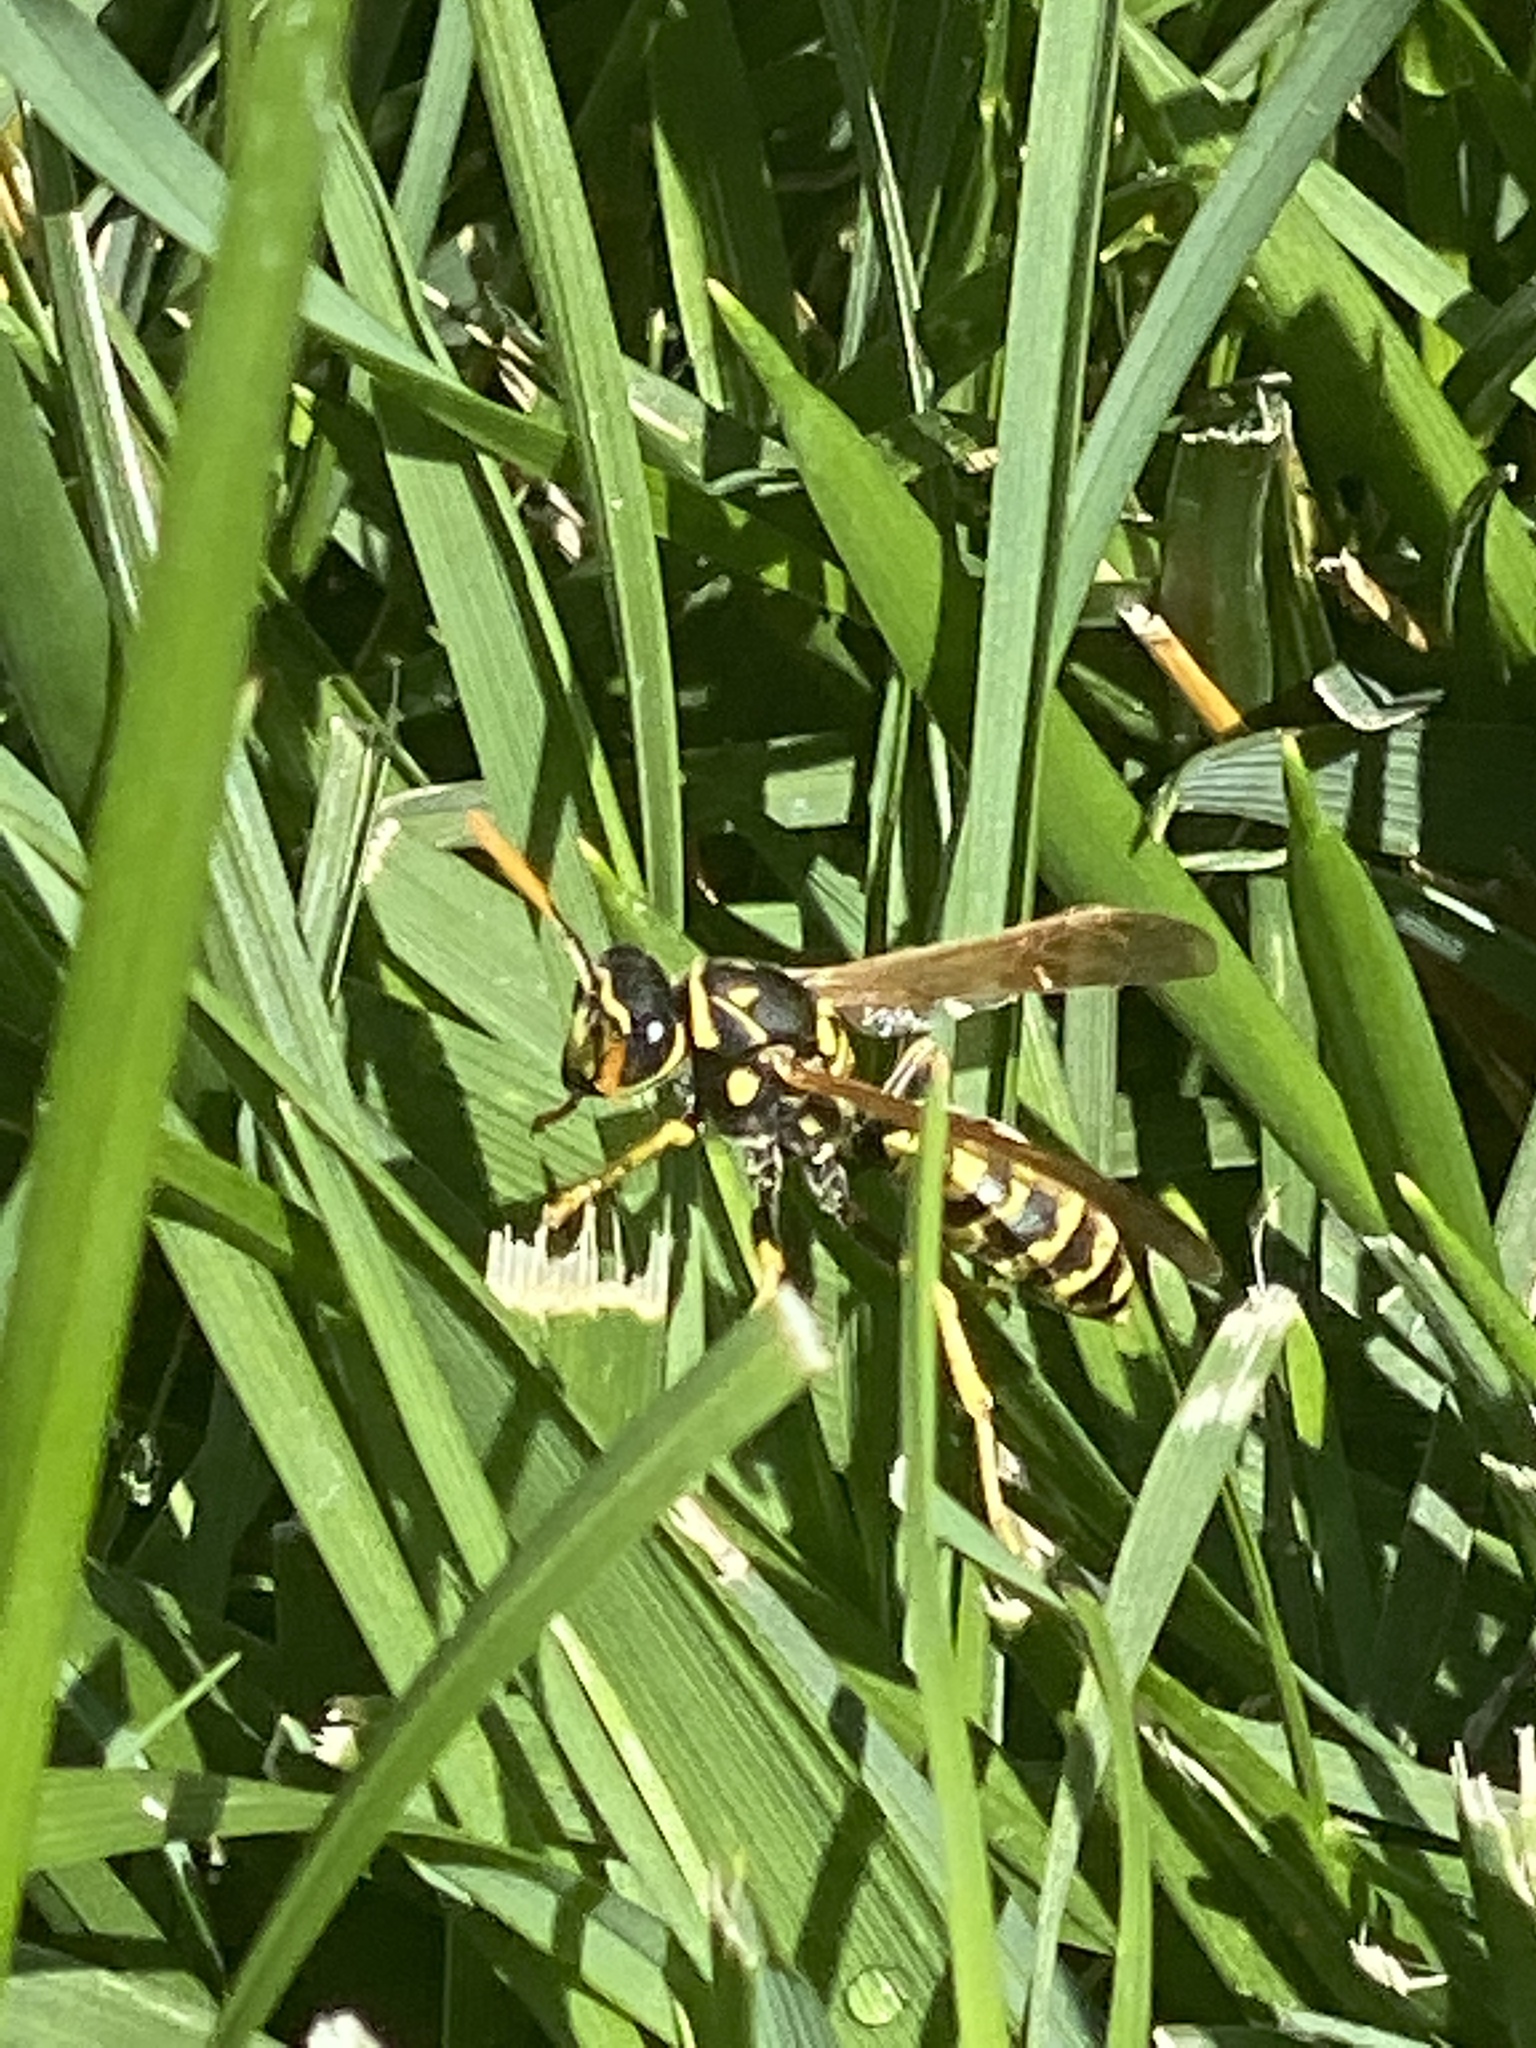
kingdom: Animalia
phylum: Arthropoda
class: Insecta
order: Hymenoptera
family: Eumenidae
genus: Polistes
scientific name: Polistes dominula
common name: Paper wasp
